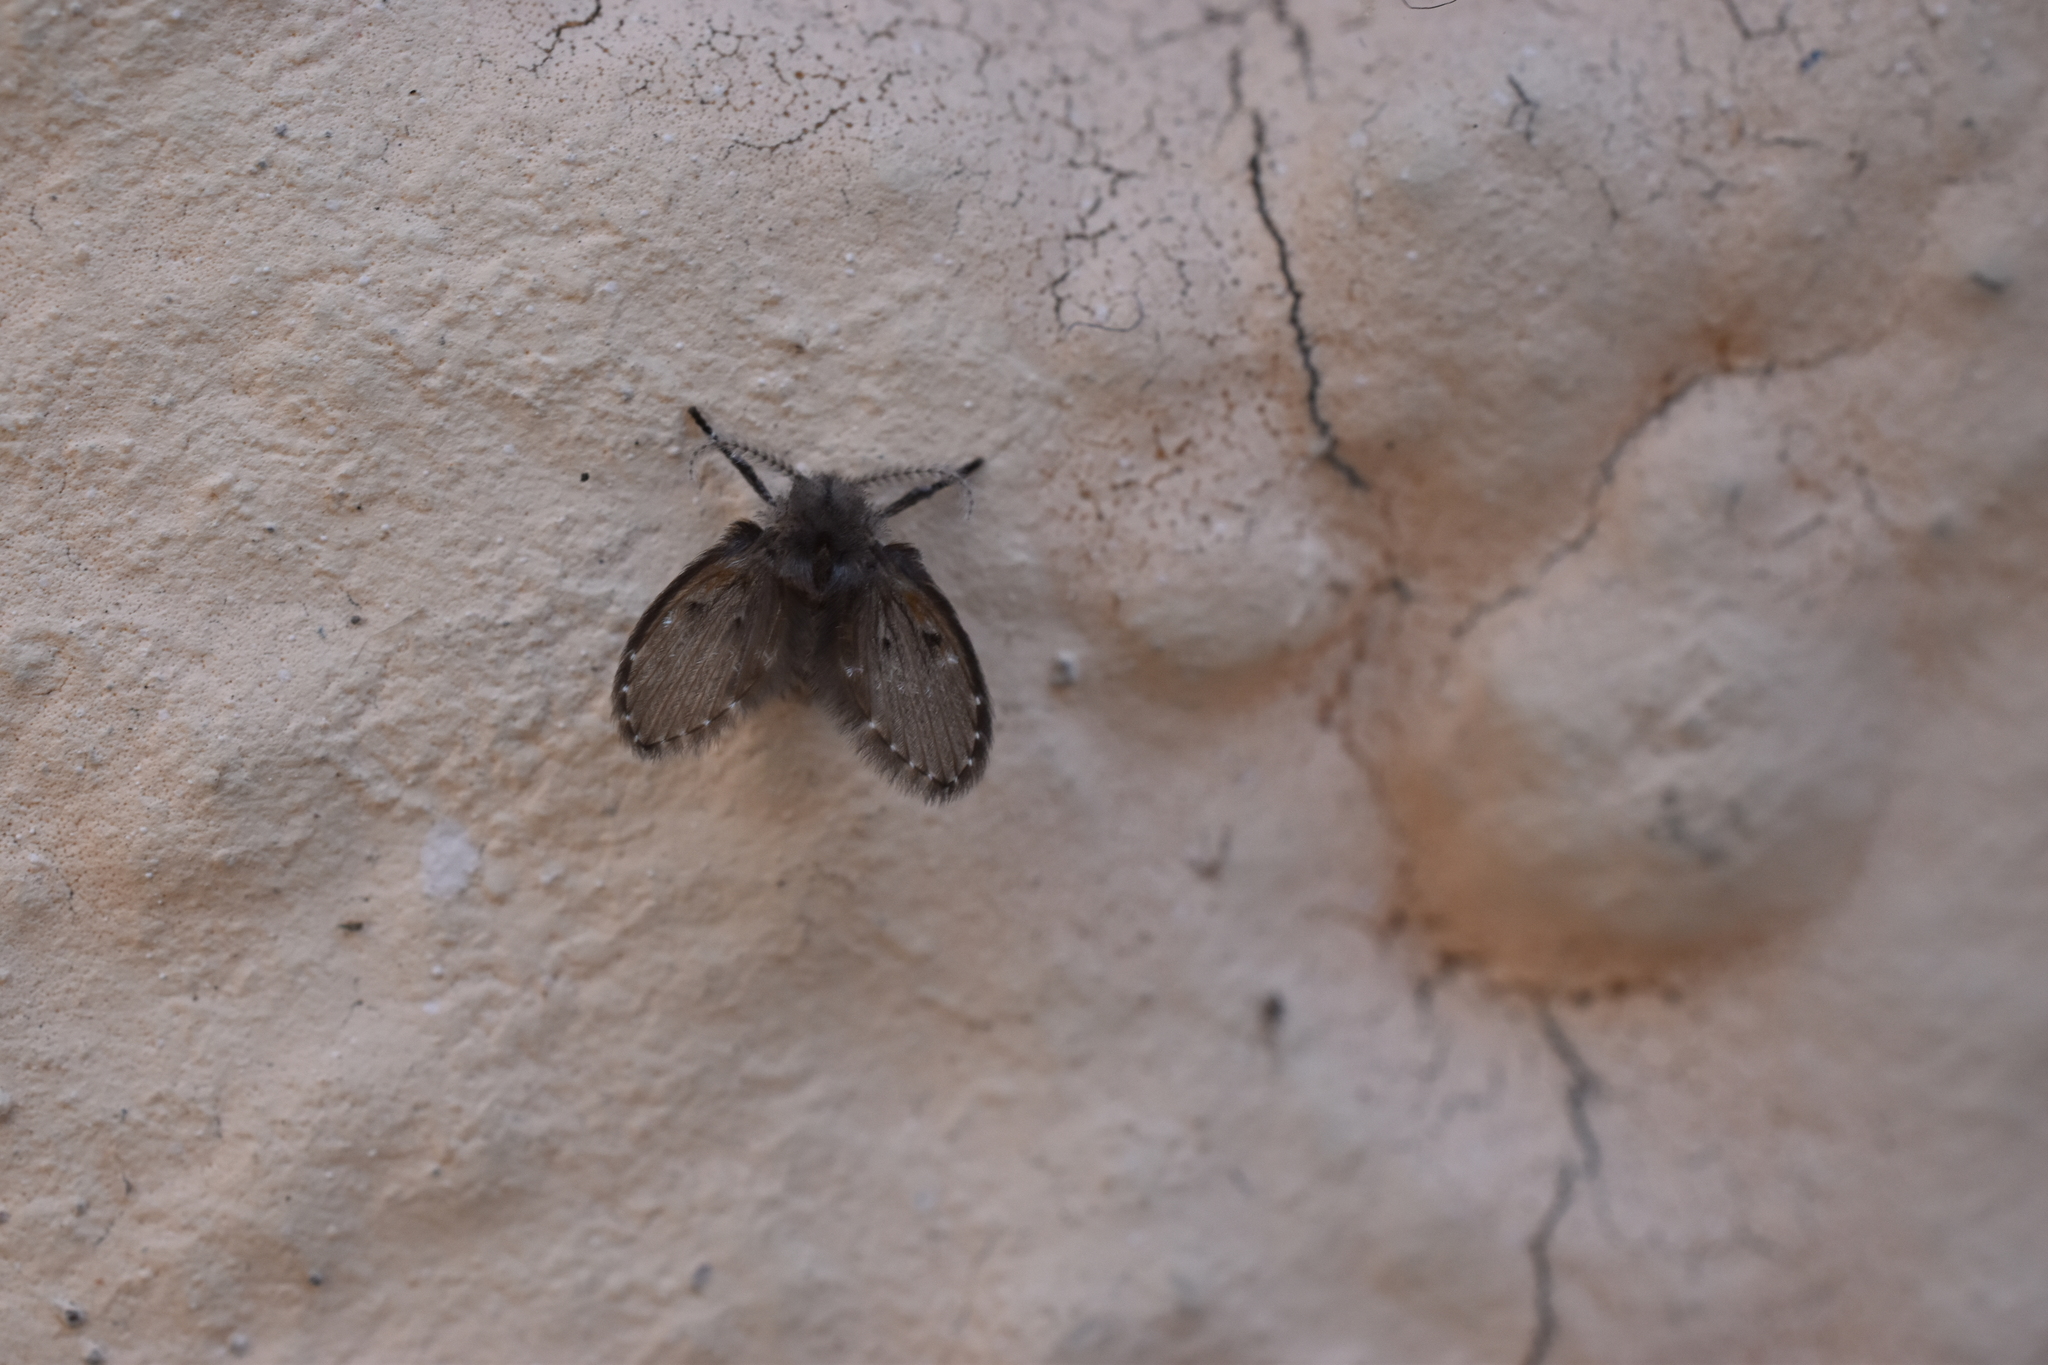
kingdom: Animalia
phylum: Arthropoda
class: Insecta
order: Diptera
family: Psychodidae
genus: Clogmia
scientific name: Clogmia albipunctatus
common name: White-spotted moth fly
